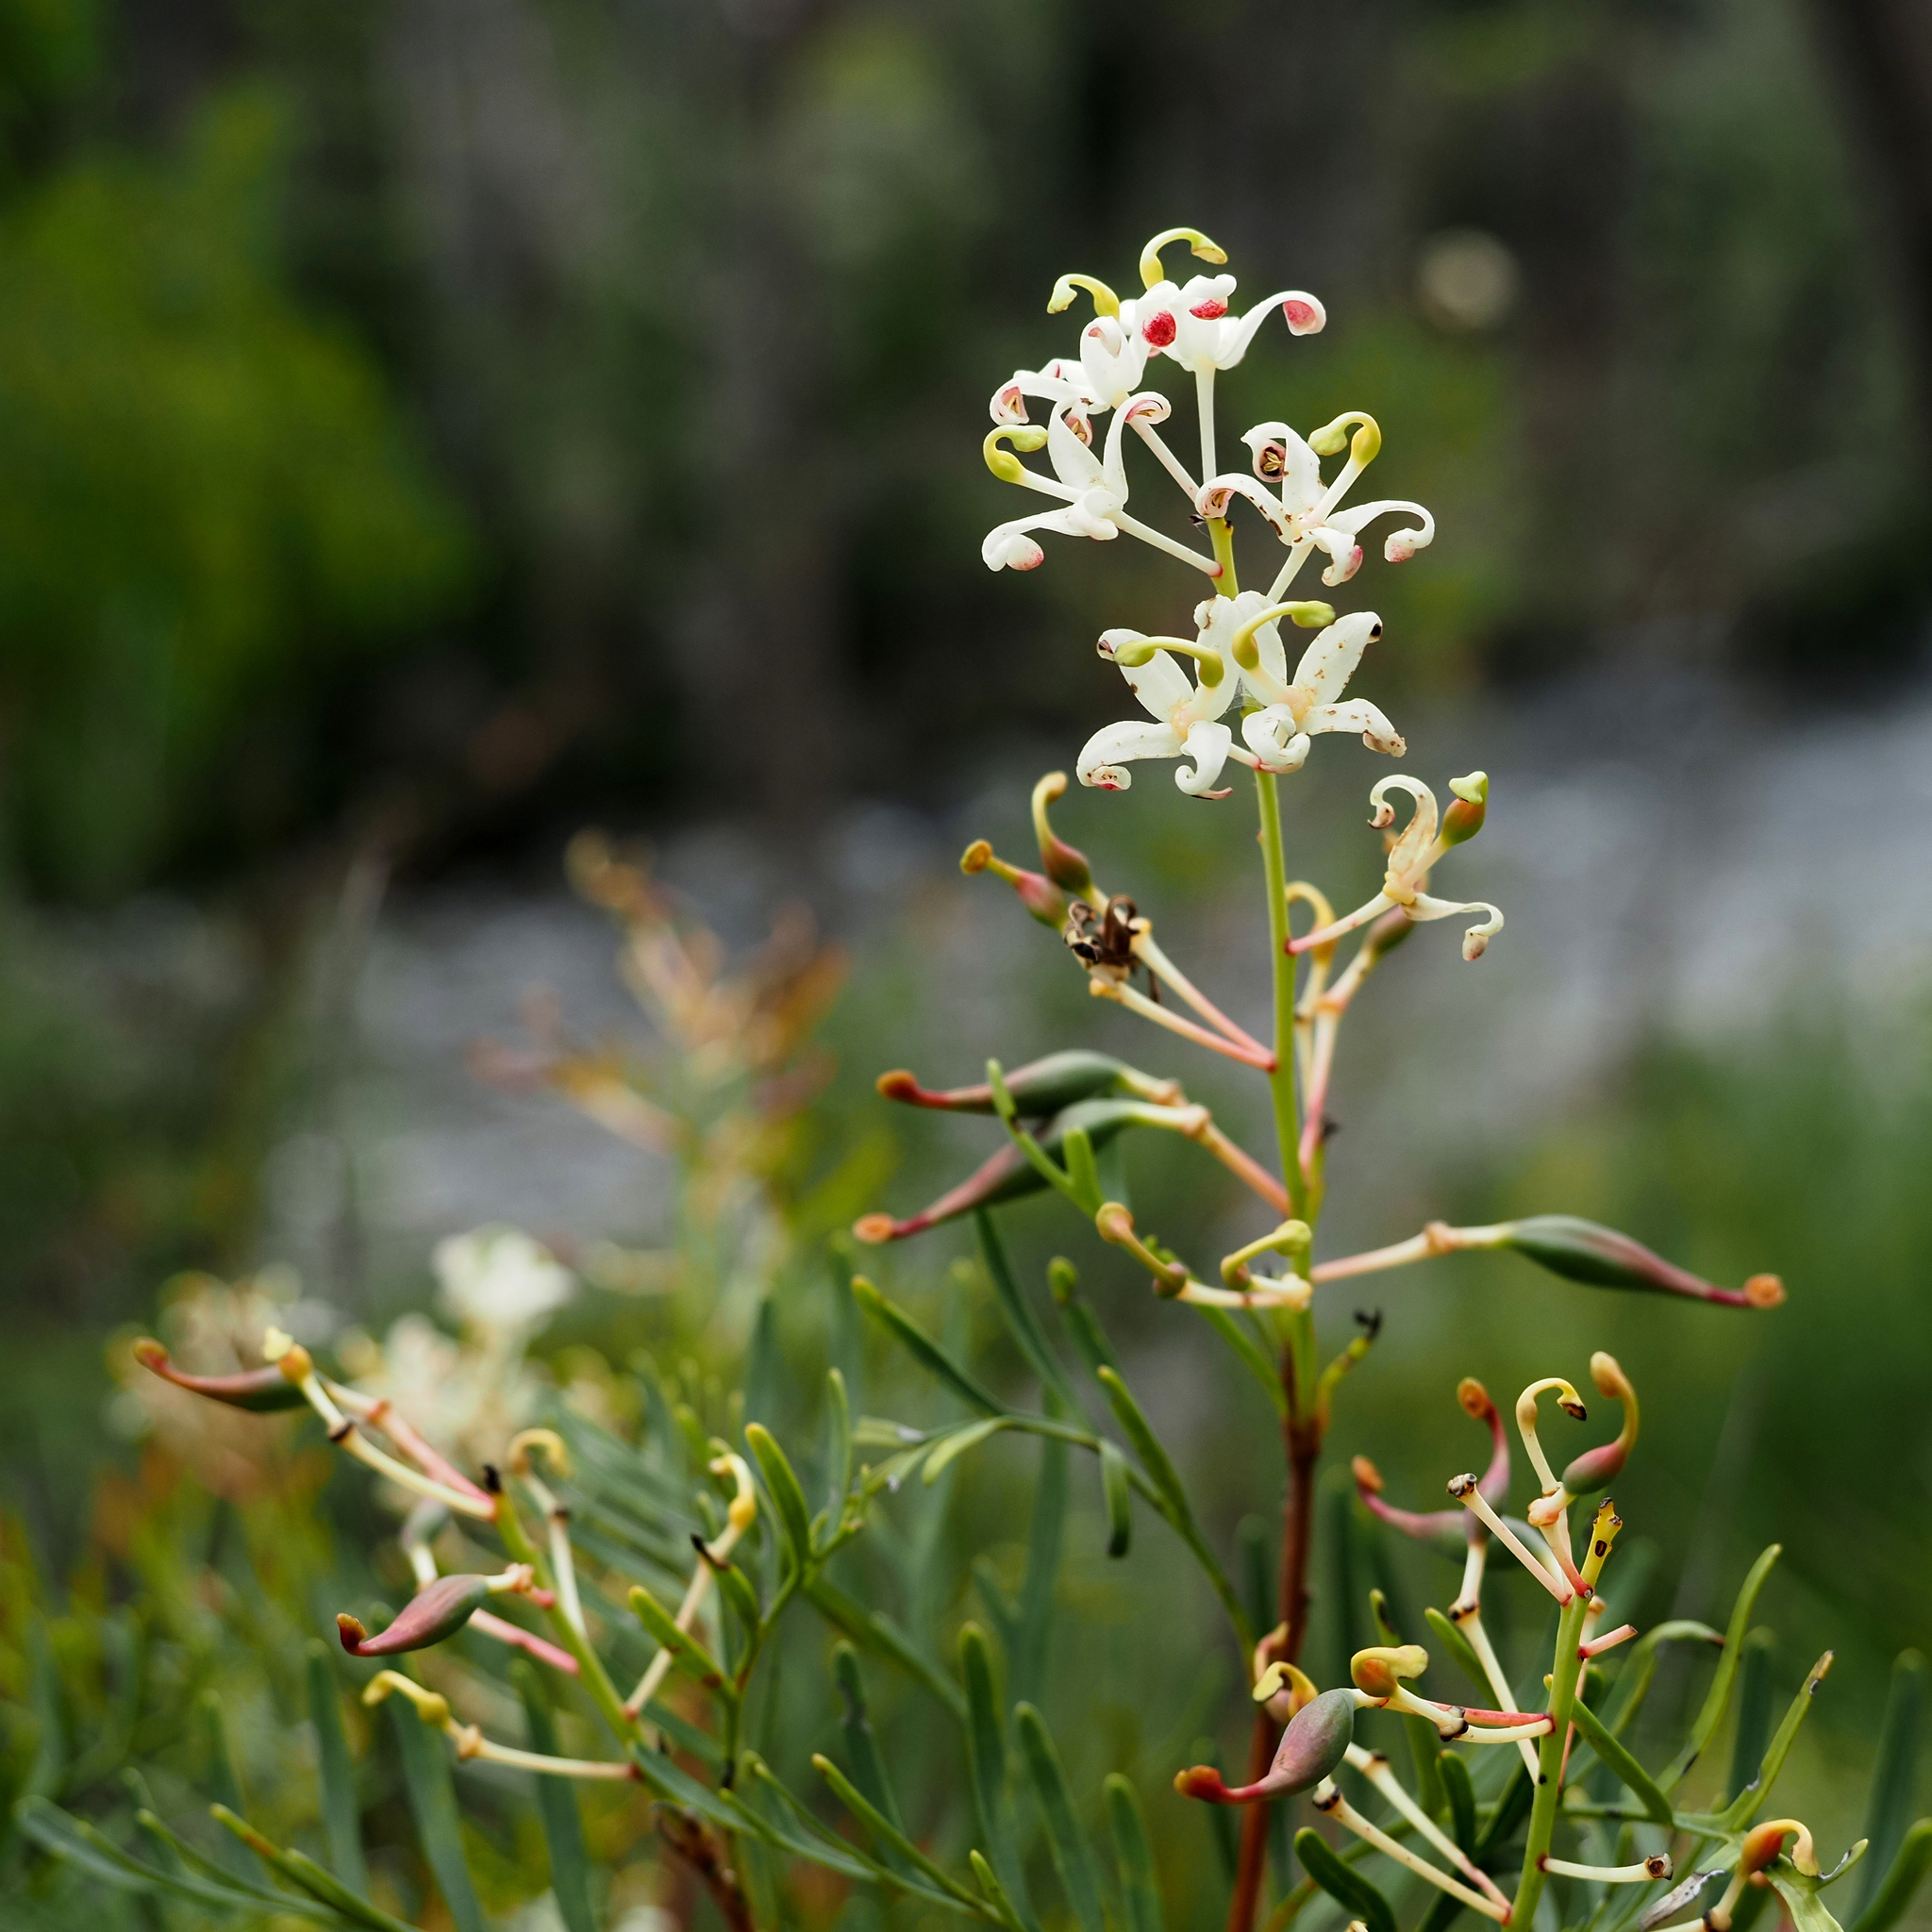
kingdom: Plantae
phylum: Tracheophyta
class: Magnoliopsida
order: Proteales
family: Proteaceae
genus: Lomatia
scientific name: Lomatia tinctoria
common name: Guitar plant
